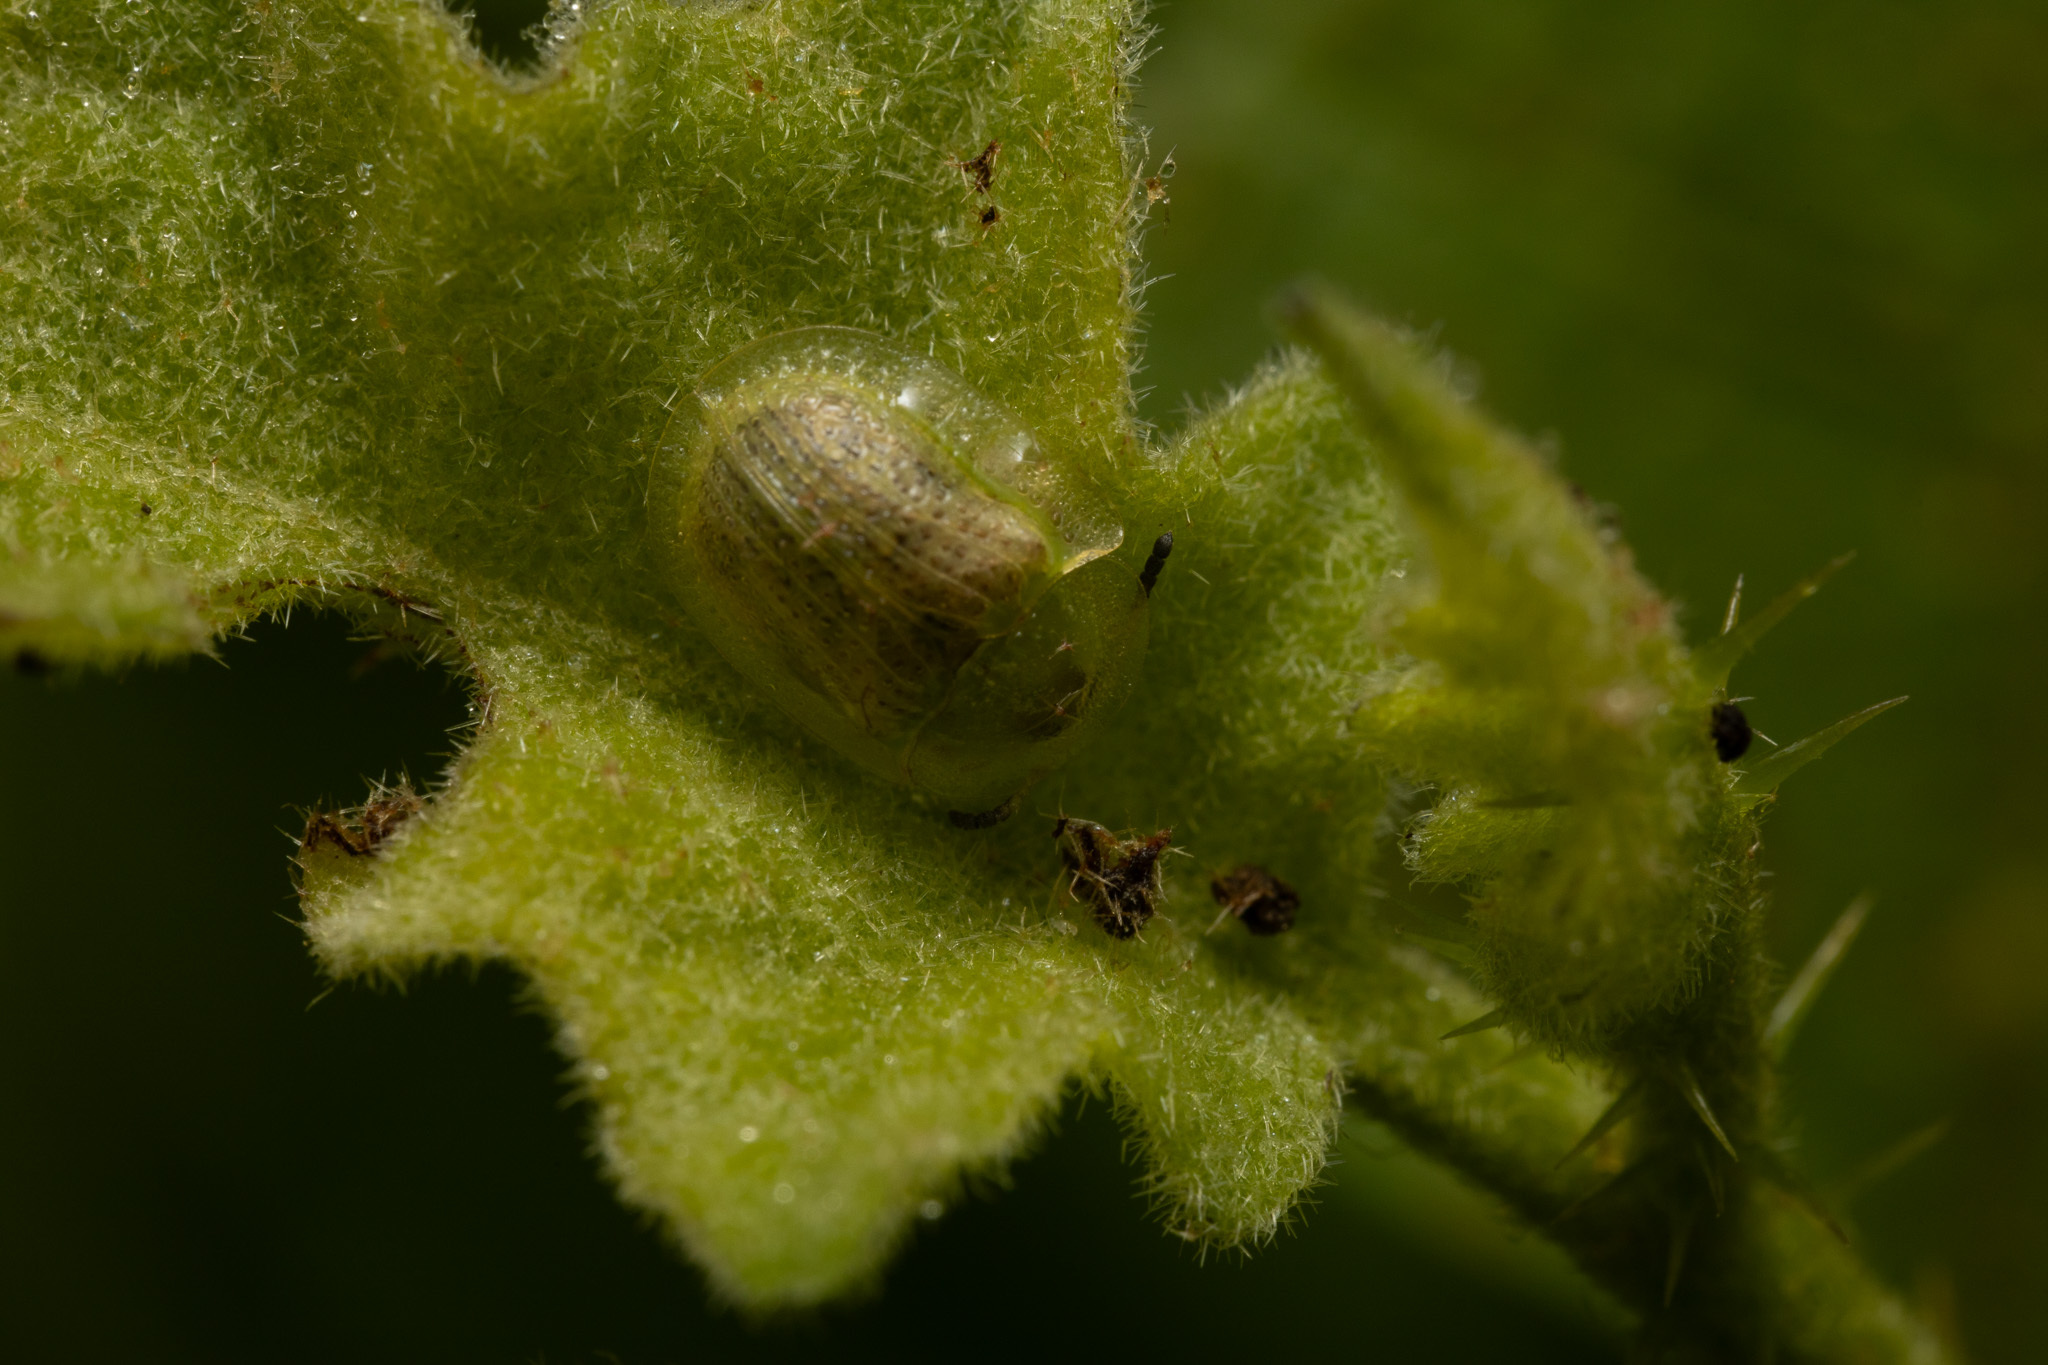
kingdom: Animalia
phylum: Arthropoda
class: Insecta
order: Coleoptera
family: Chrysomelidae
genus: Gratiana
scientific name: Gratiana pallidula
